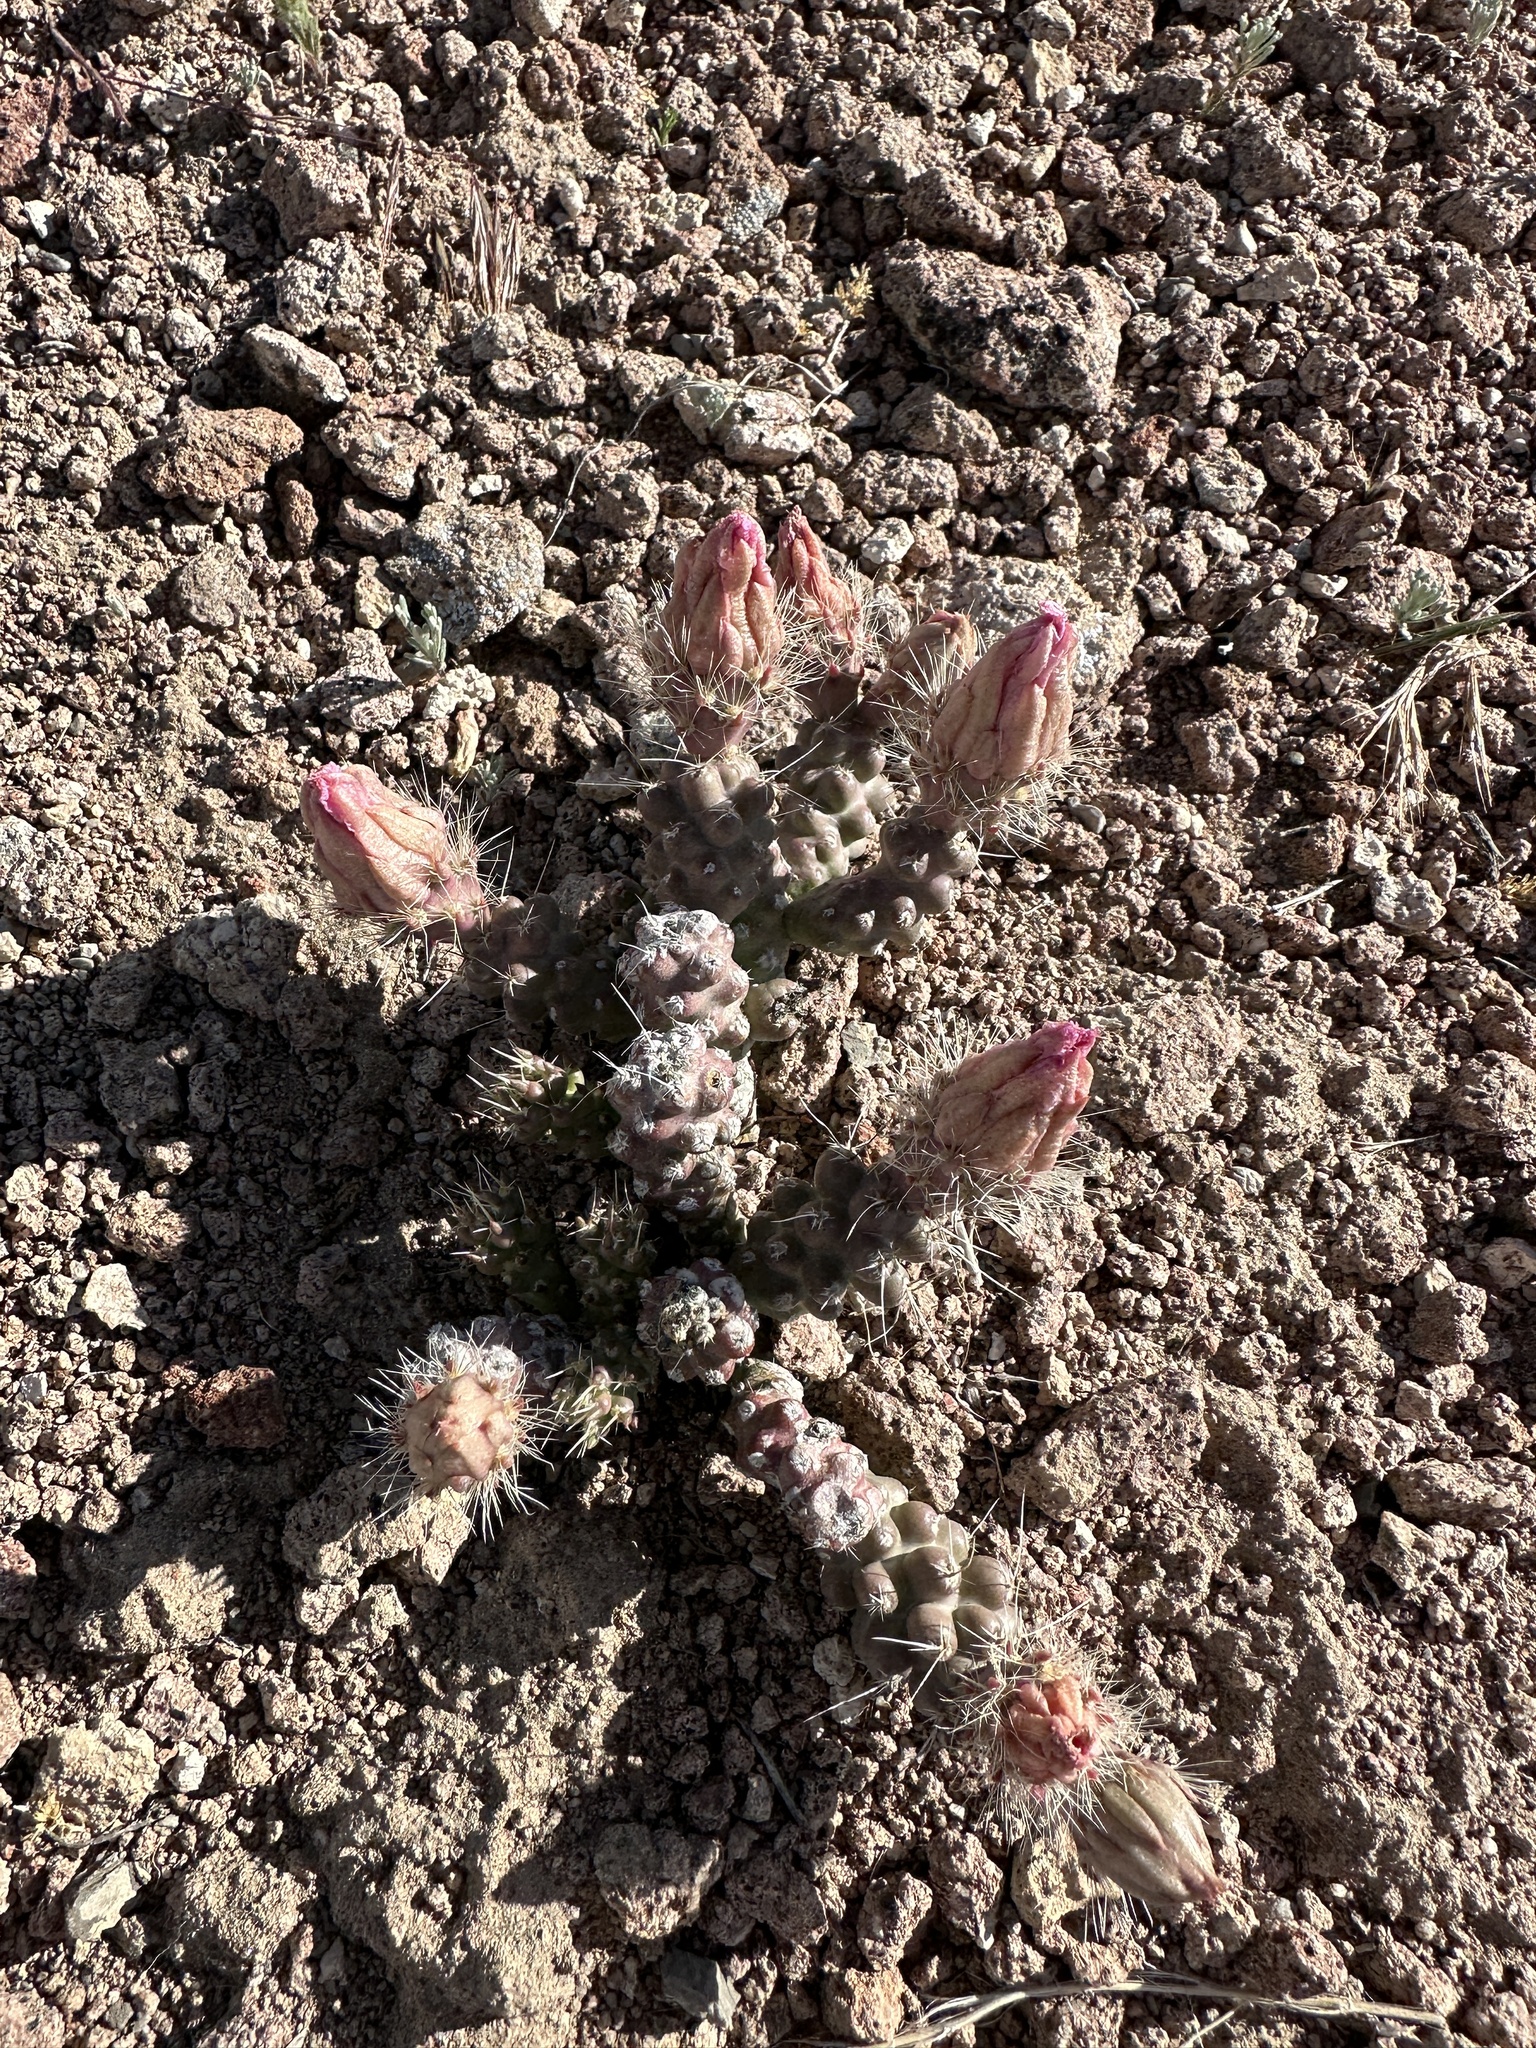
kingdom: Plantae
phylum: Tracheophyta
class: Magnoliopsida
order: Caryophyllales
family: Cactaceae
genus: Micropuntia
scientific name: Micropuntia pulchella
